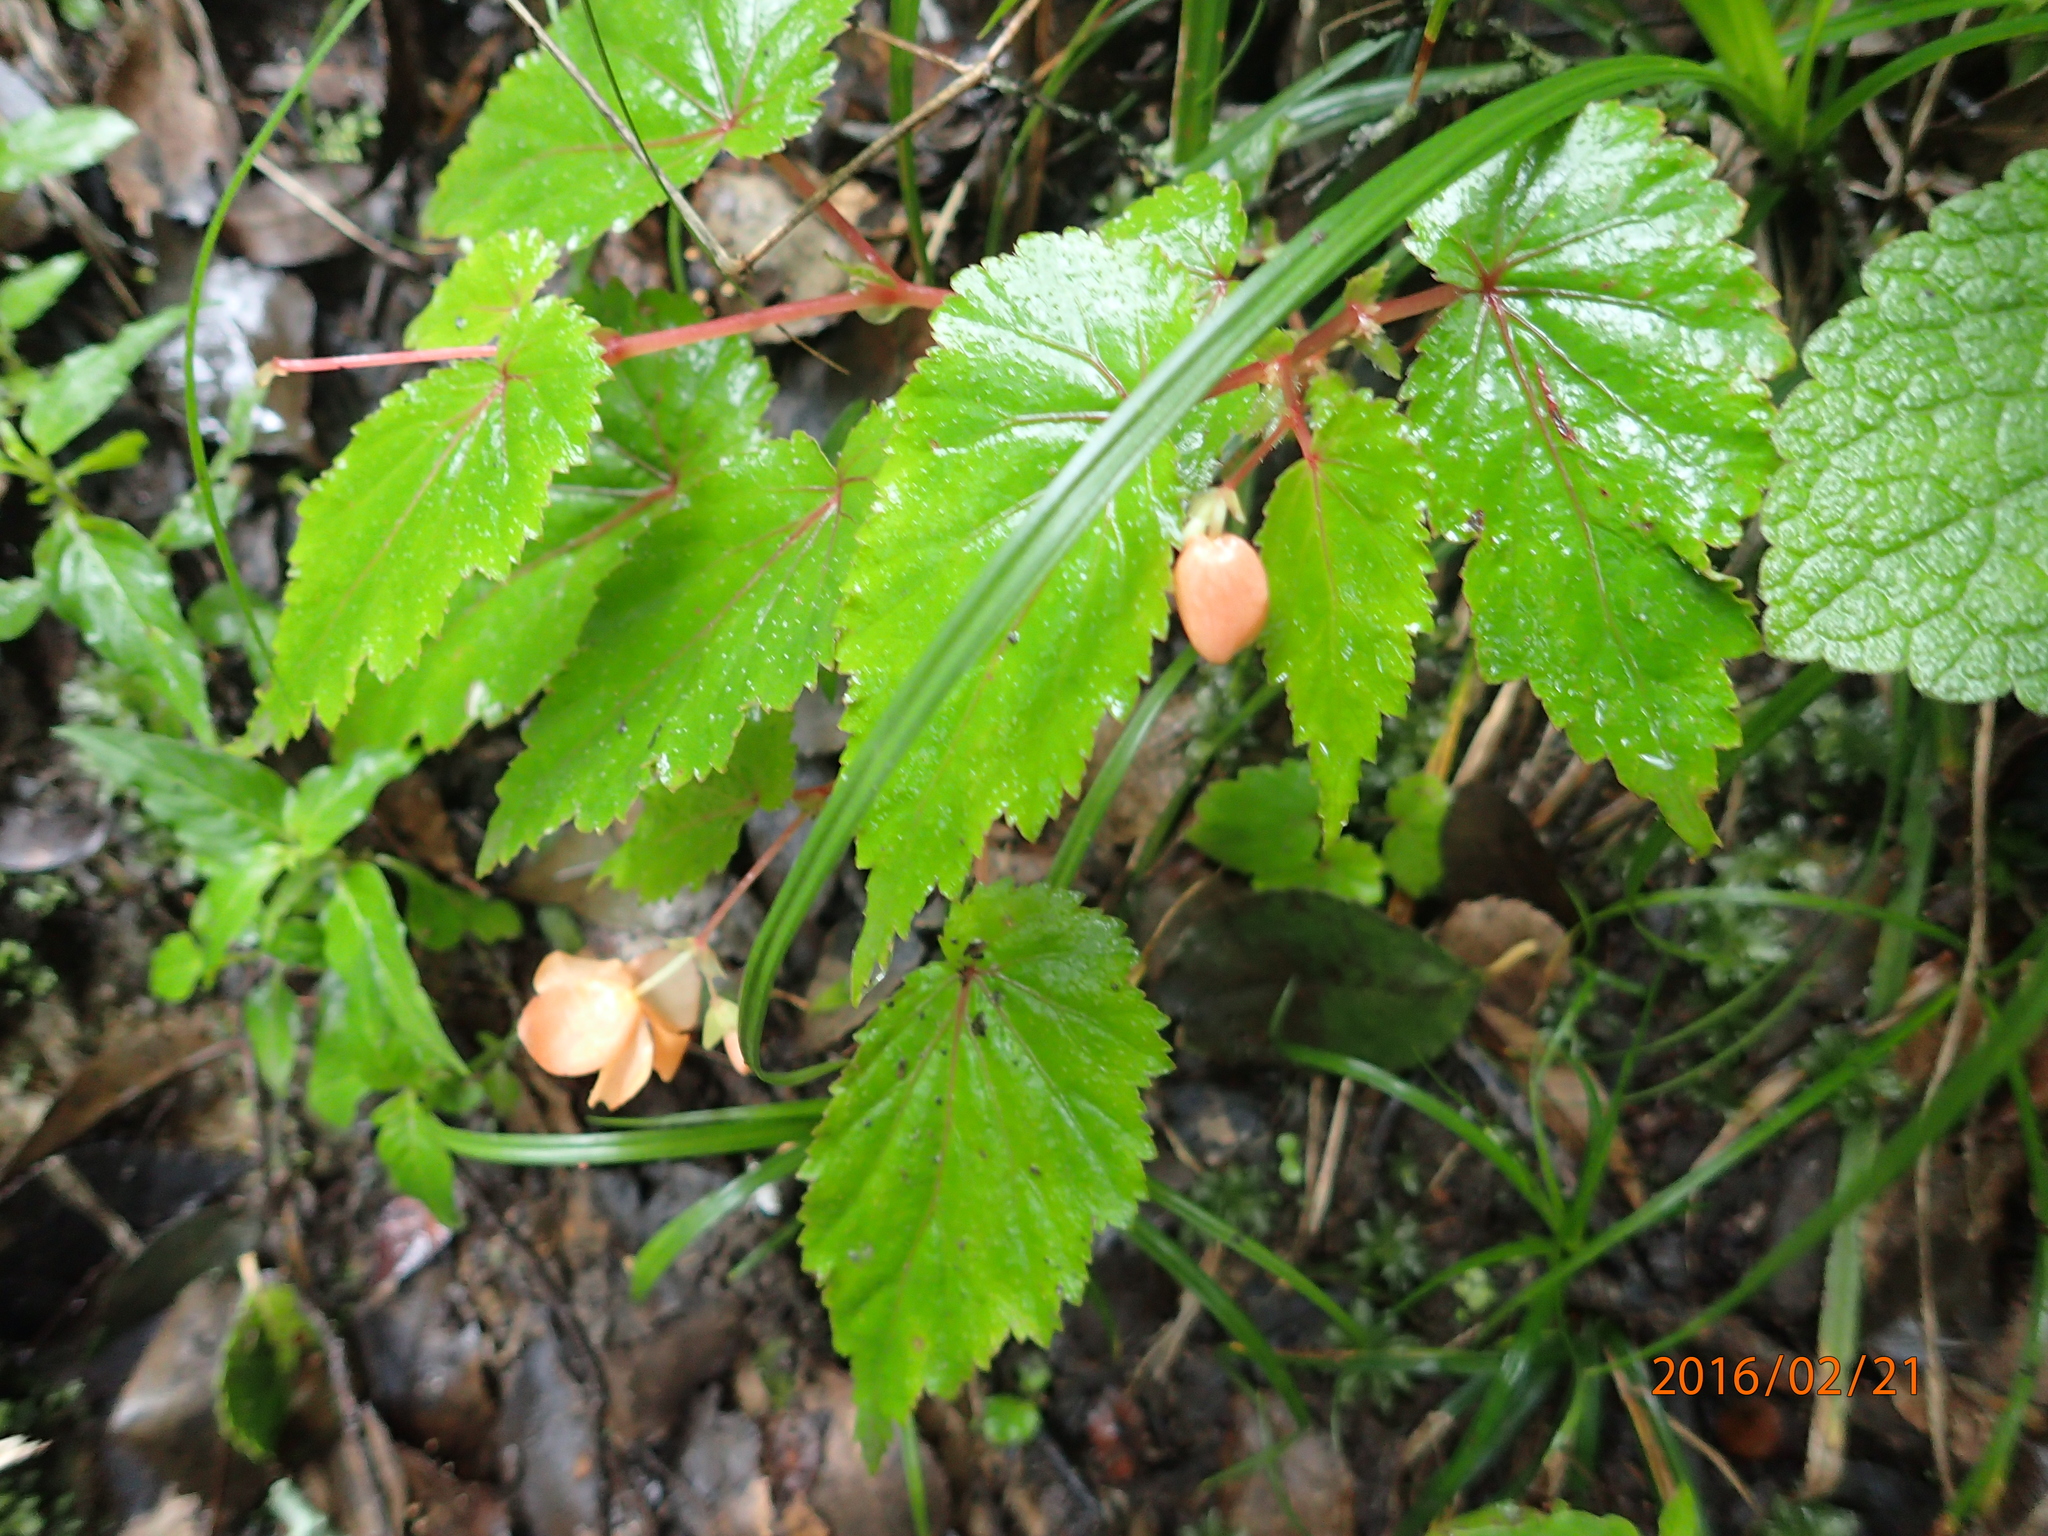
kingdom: Plantae
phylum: Tracheophyta
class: Magnoliopsida
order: Cucurbitales
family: Begoniaceae
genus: Begonia
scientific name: Begonia sutherlandii
